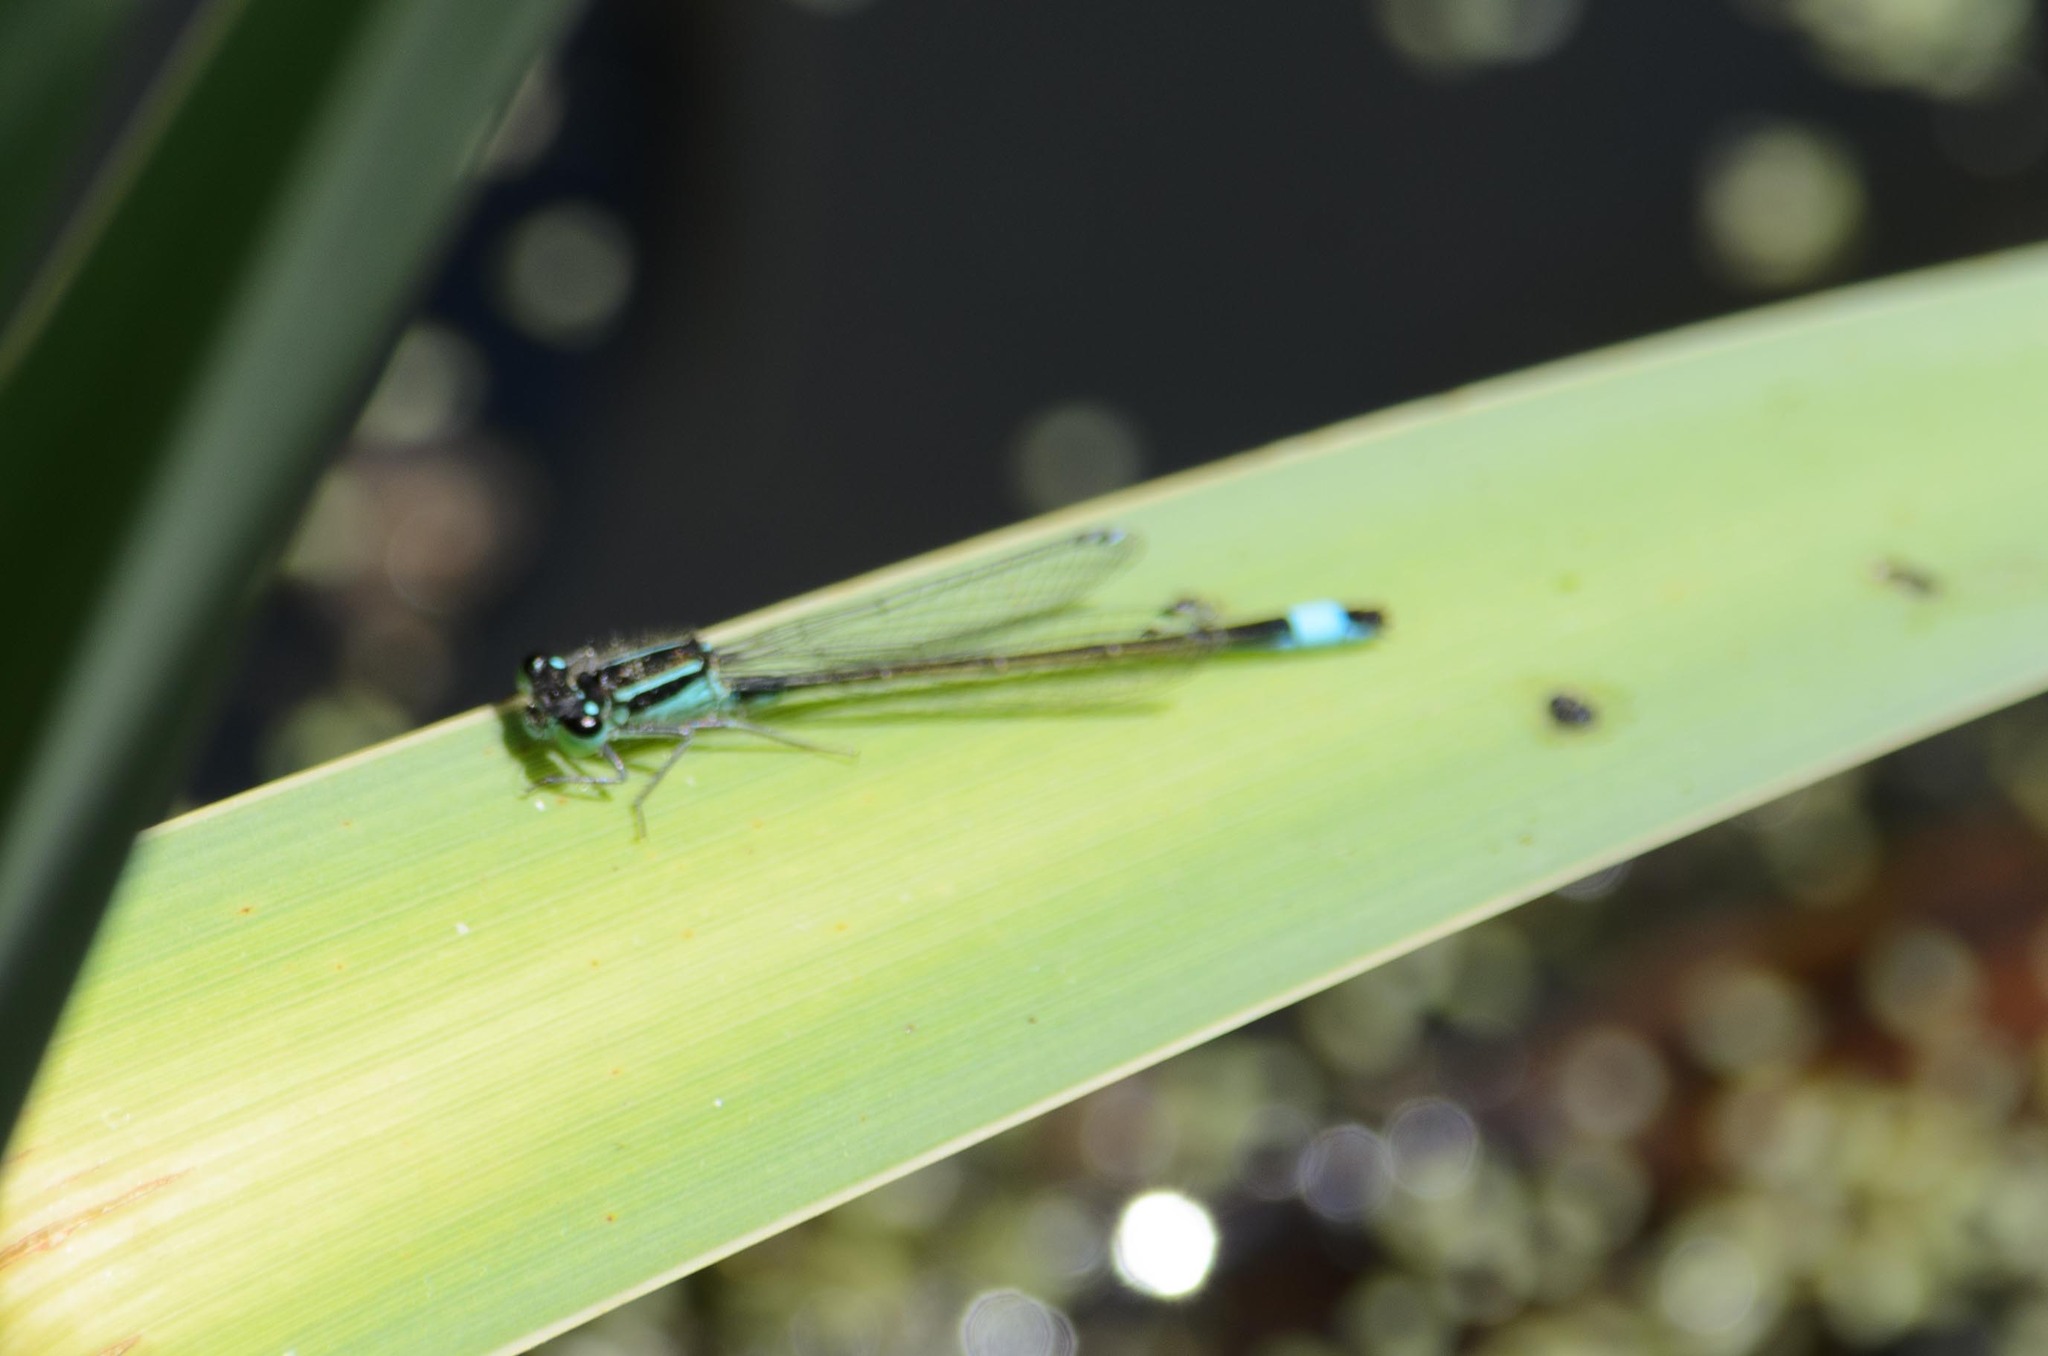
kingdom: Animalia
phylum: Arthropoda
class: Insecta
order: Odonata
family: Coenagrionidae
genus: Ischnura
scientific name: Ischnura elegans
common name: Blue-tailed damselfly
